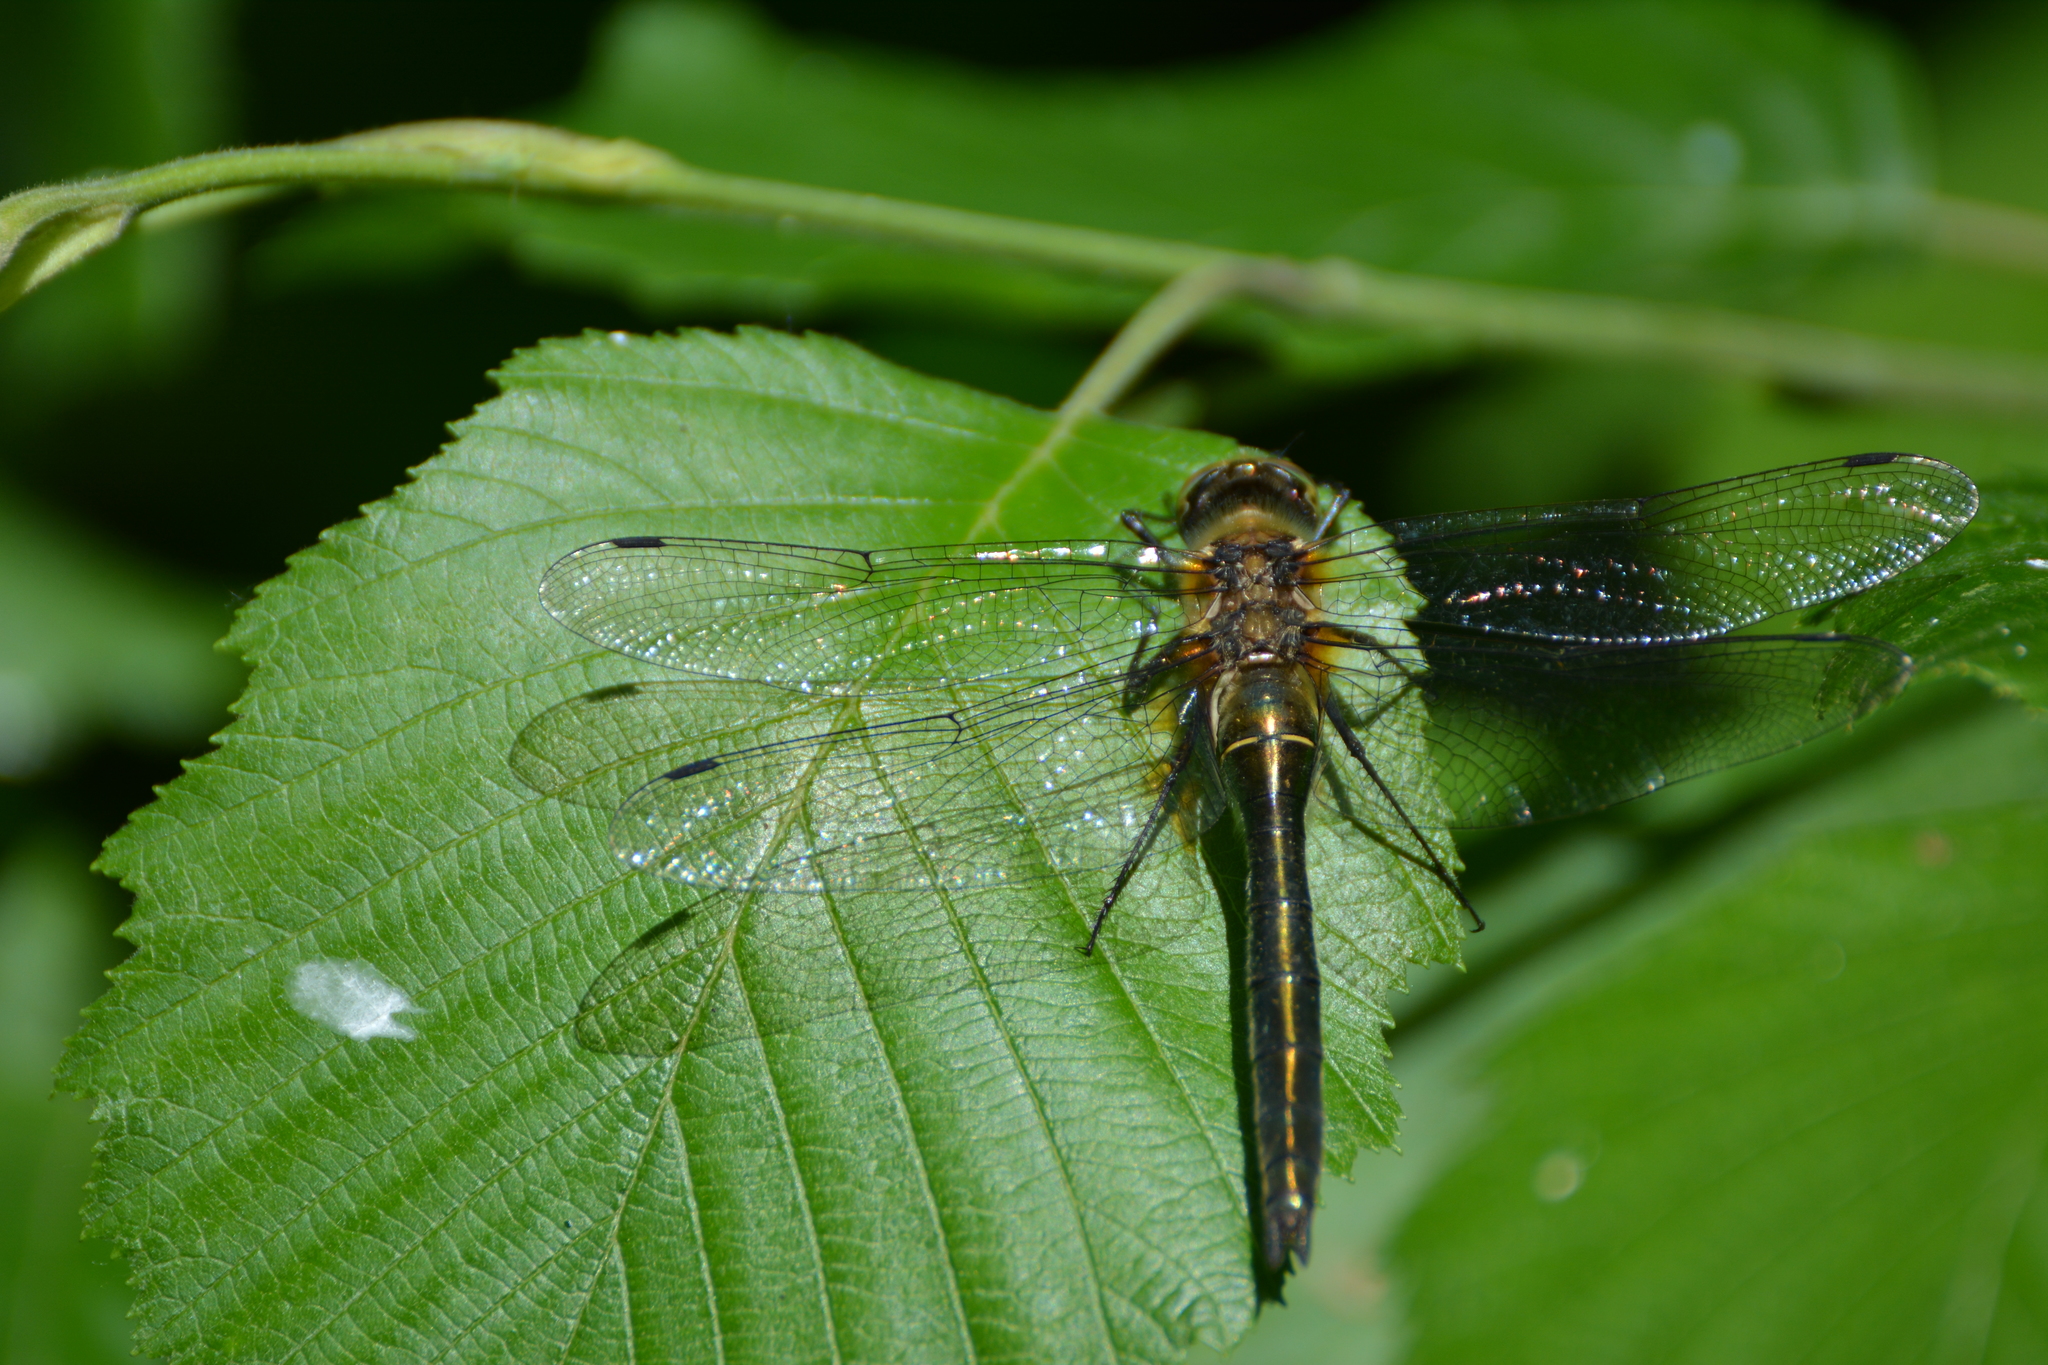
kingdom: Animalia
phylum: Arthropoda
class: Insecta
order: Odonata
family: Corduliidae
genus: Cordulia
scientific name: Cordulia aenea
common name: Downy emerald
